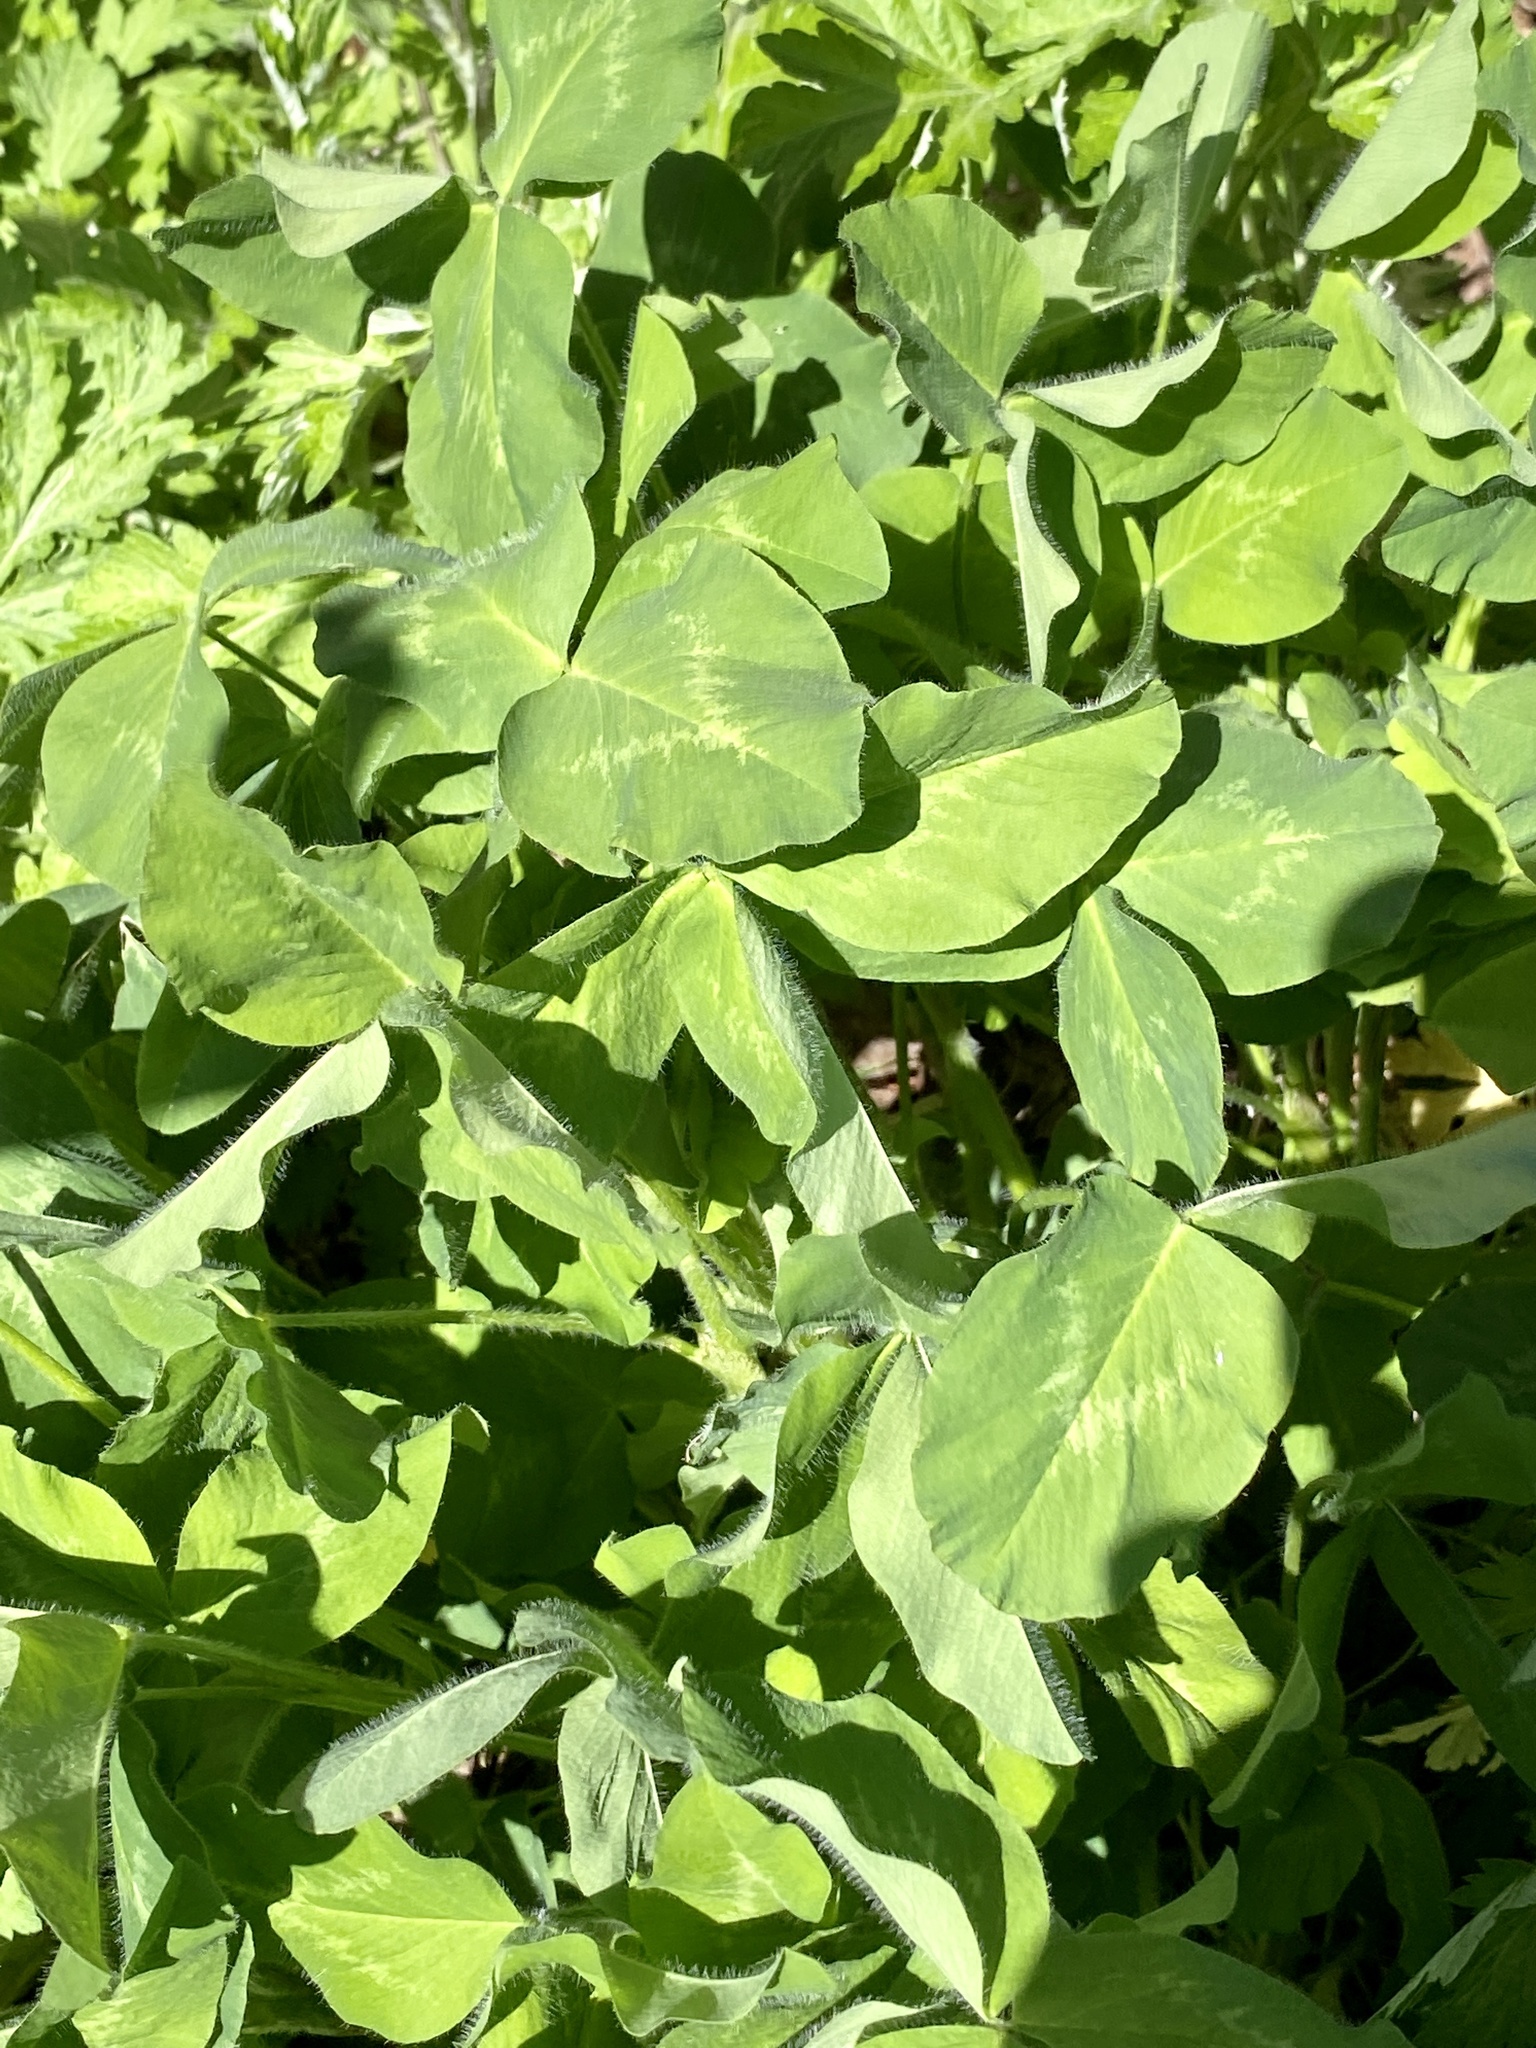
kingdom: Plantae
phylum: Tracheophyta
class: Magnoliopsida
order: Fabales
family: Fabaceae
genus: Trifolium
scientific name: Trifolium pratense
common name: Red clover
